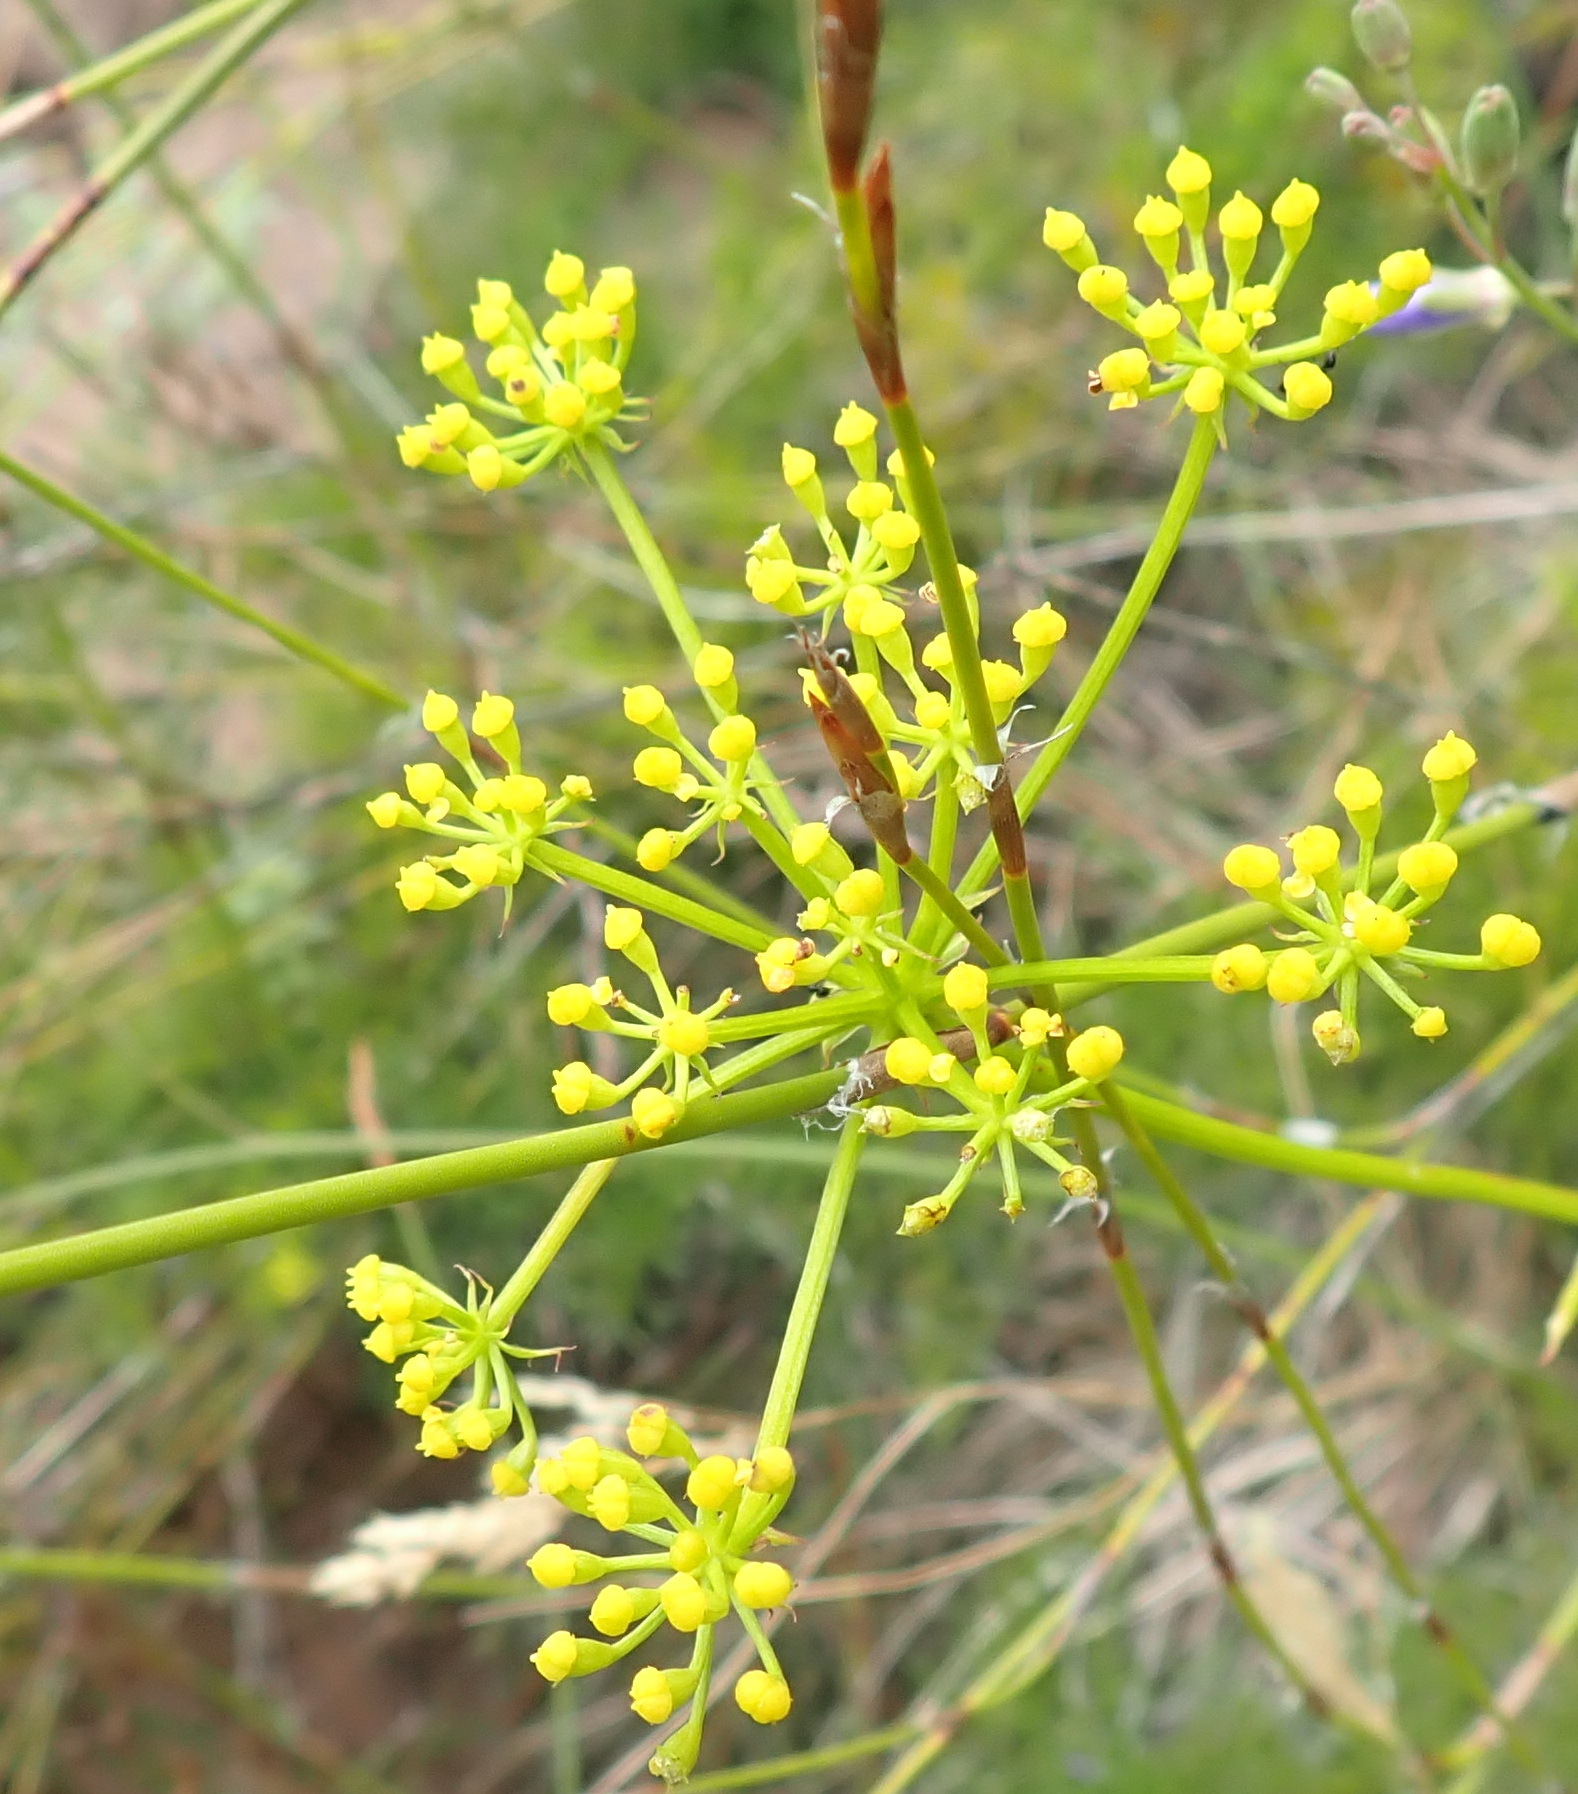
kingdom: Plantae
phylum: Tracheophyta
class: Magnoliopsida
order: Apiales
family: Apiaceae
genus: Notobubon
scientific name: Notobubon ferulaceum
